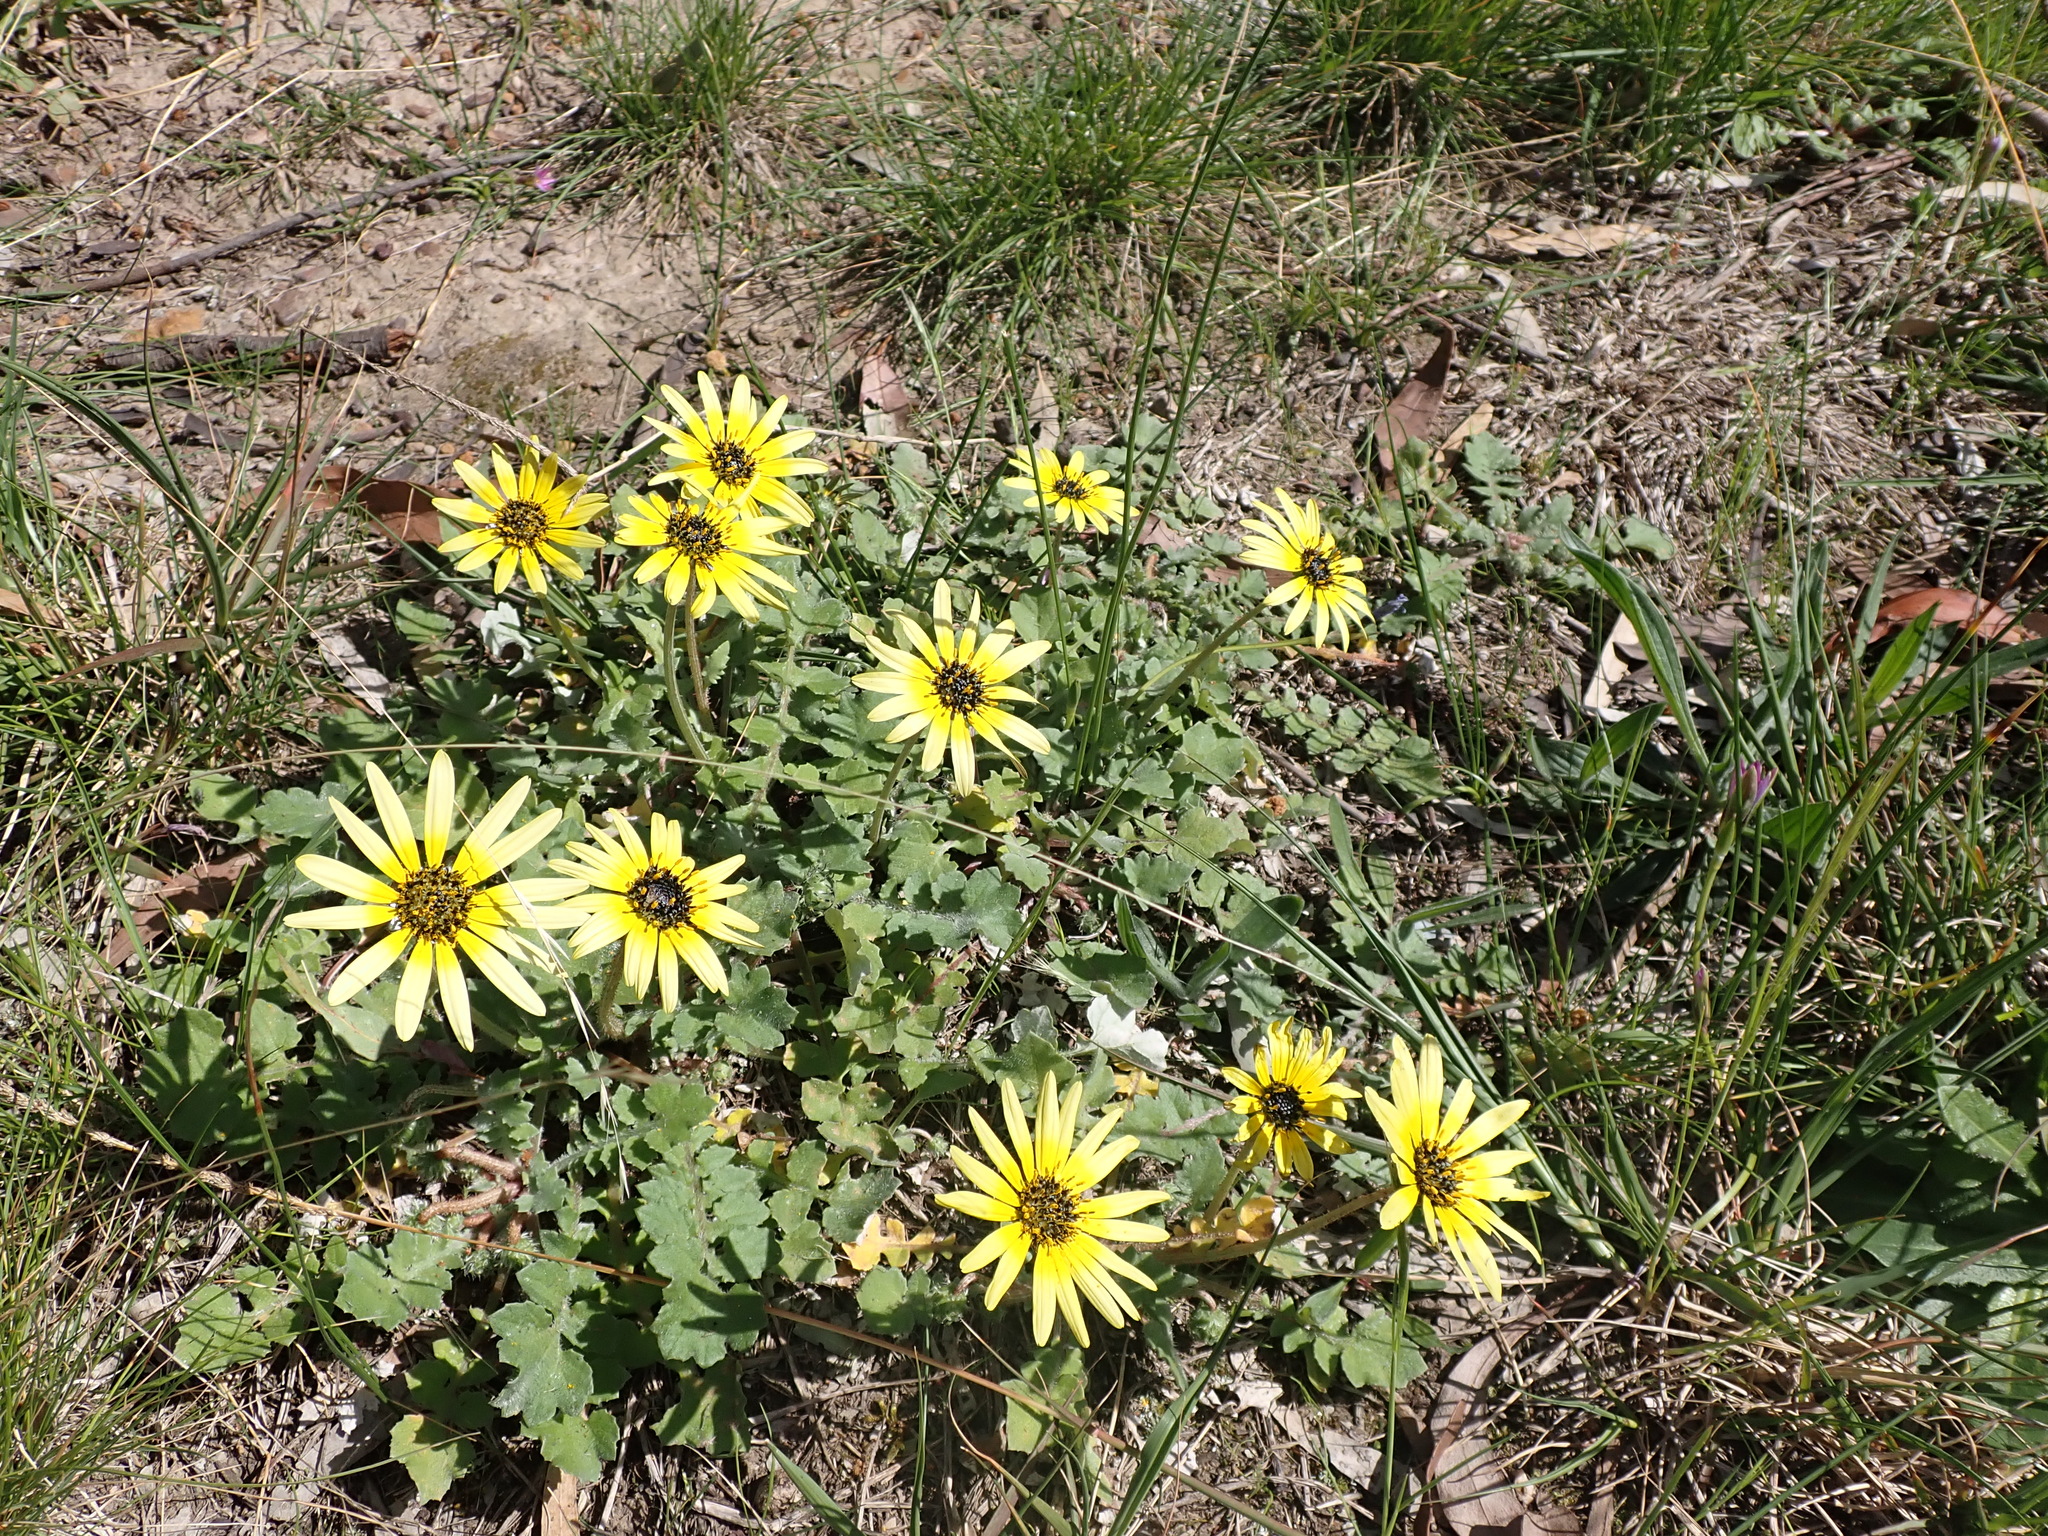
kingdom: Plantae
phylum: Tracheophyta
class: Magnoliopsida
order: Asterales
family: Asteraceae
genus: Arctotheca
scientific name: Arctotheca calendula
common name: Capeweed
